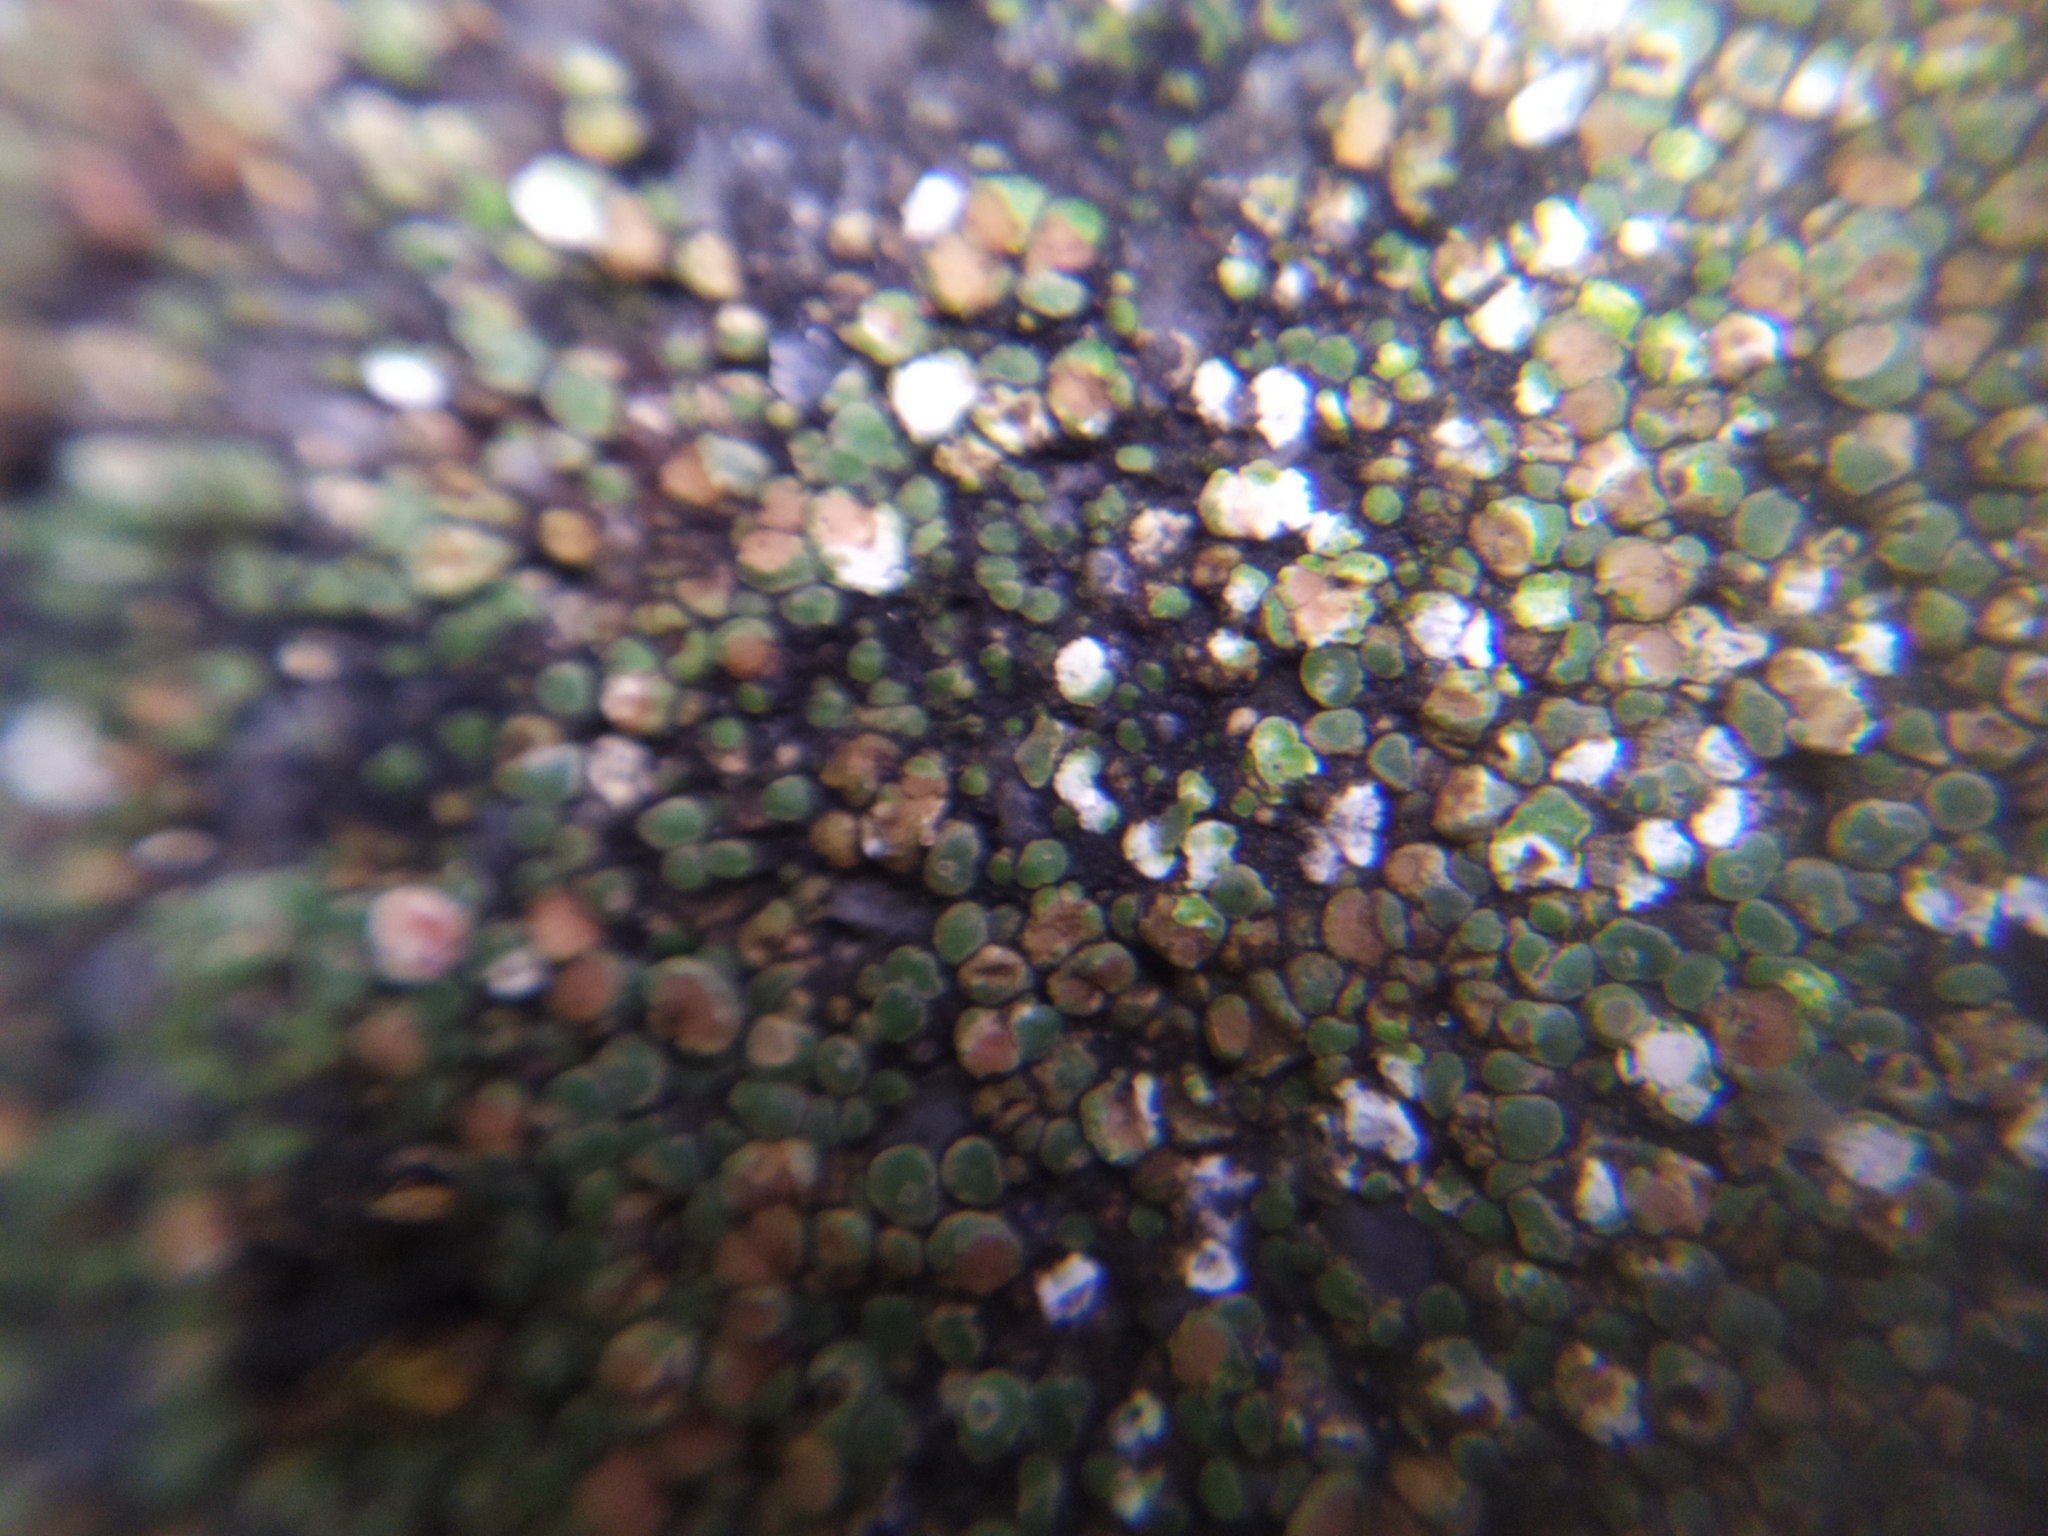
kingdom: Fungi
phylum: Ascomycota
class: Lecanoromycetes
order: Pertusariales
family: Megasporaceae
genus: Circinaria
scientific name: Circinaria contorta
